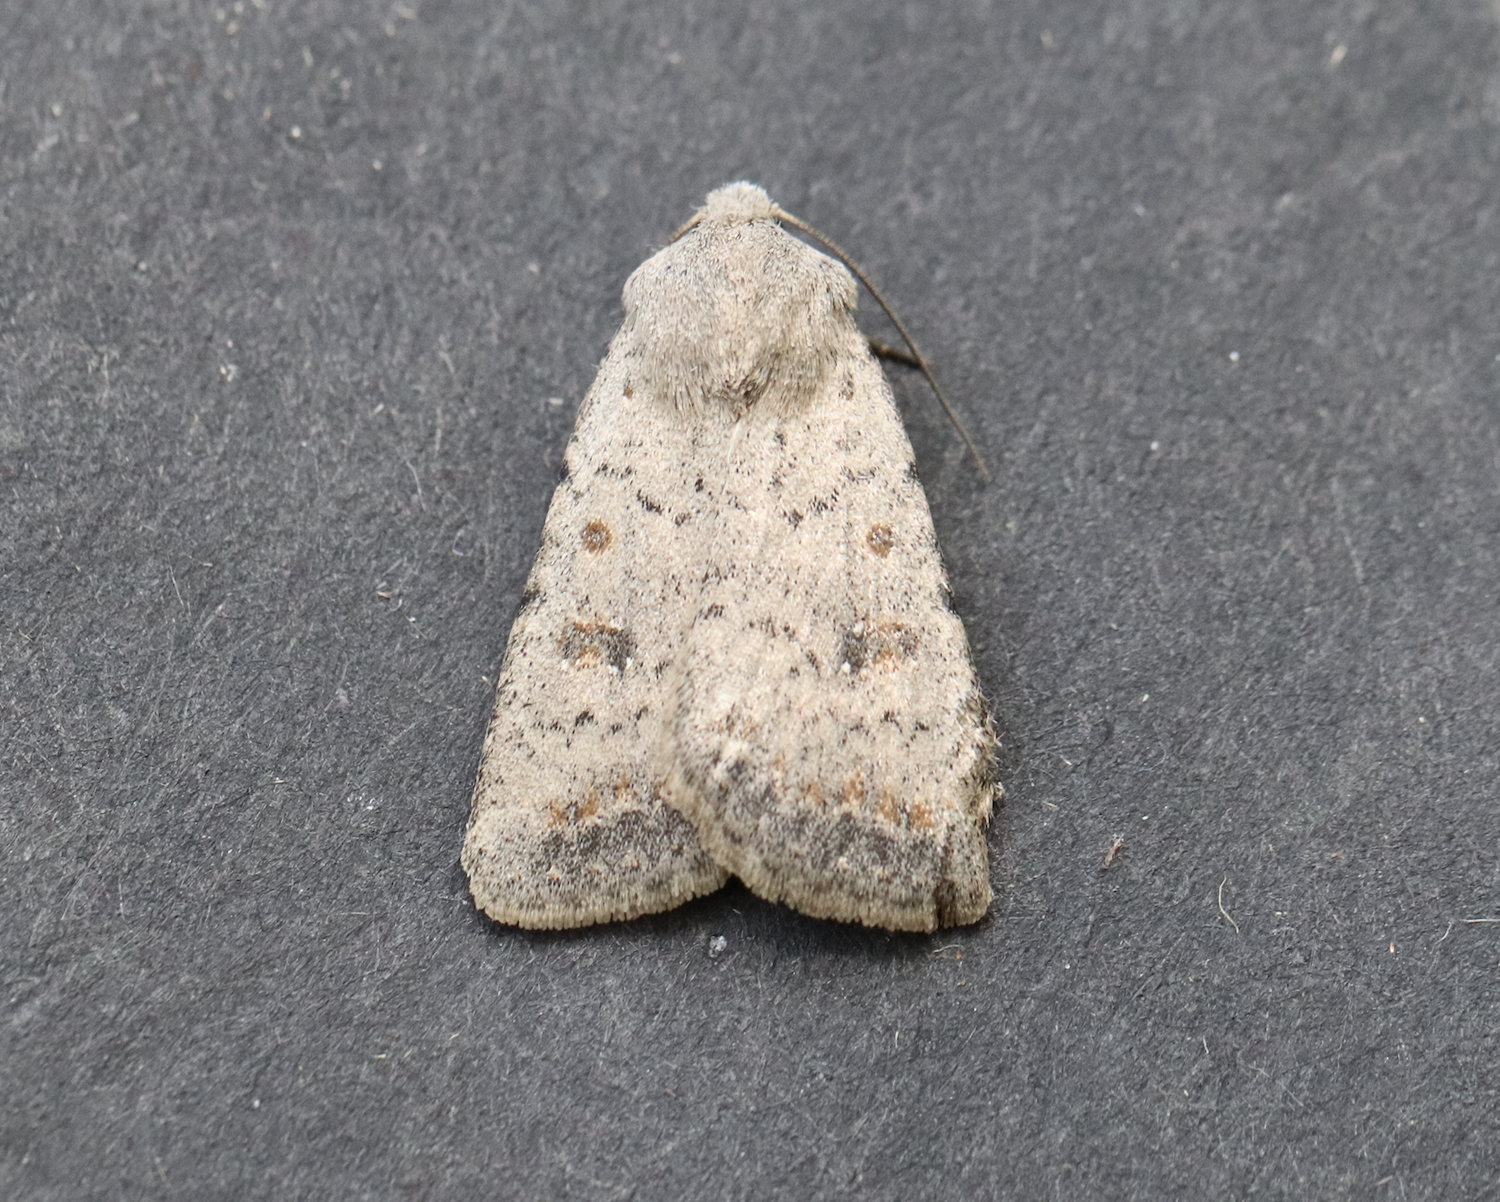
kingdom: Animalia
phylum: Arthropoda
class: Insecta
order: Lepidoptera
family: Noctuidae
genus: Caradrina
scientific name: Caradrina montana
